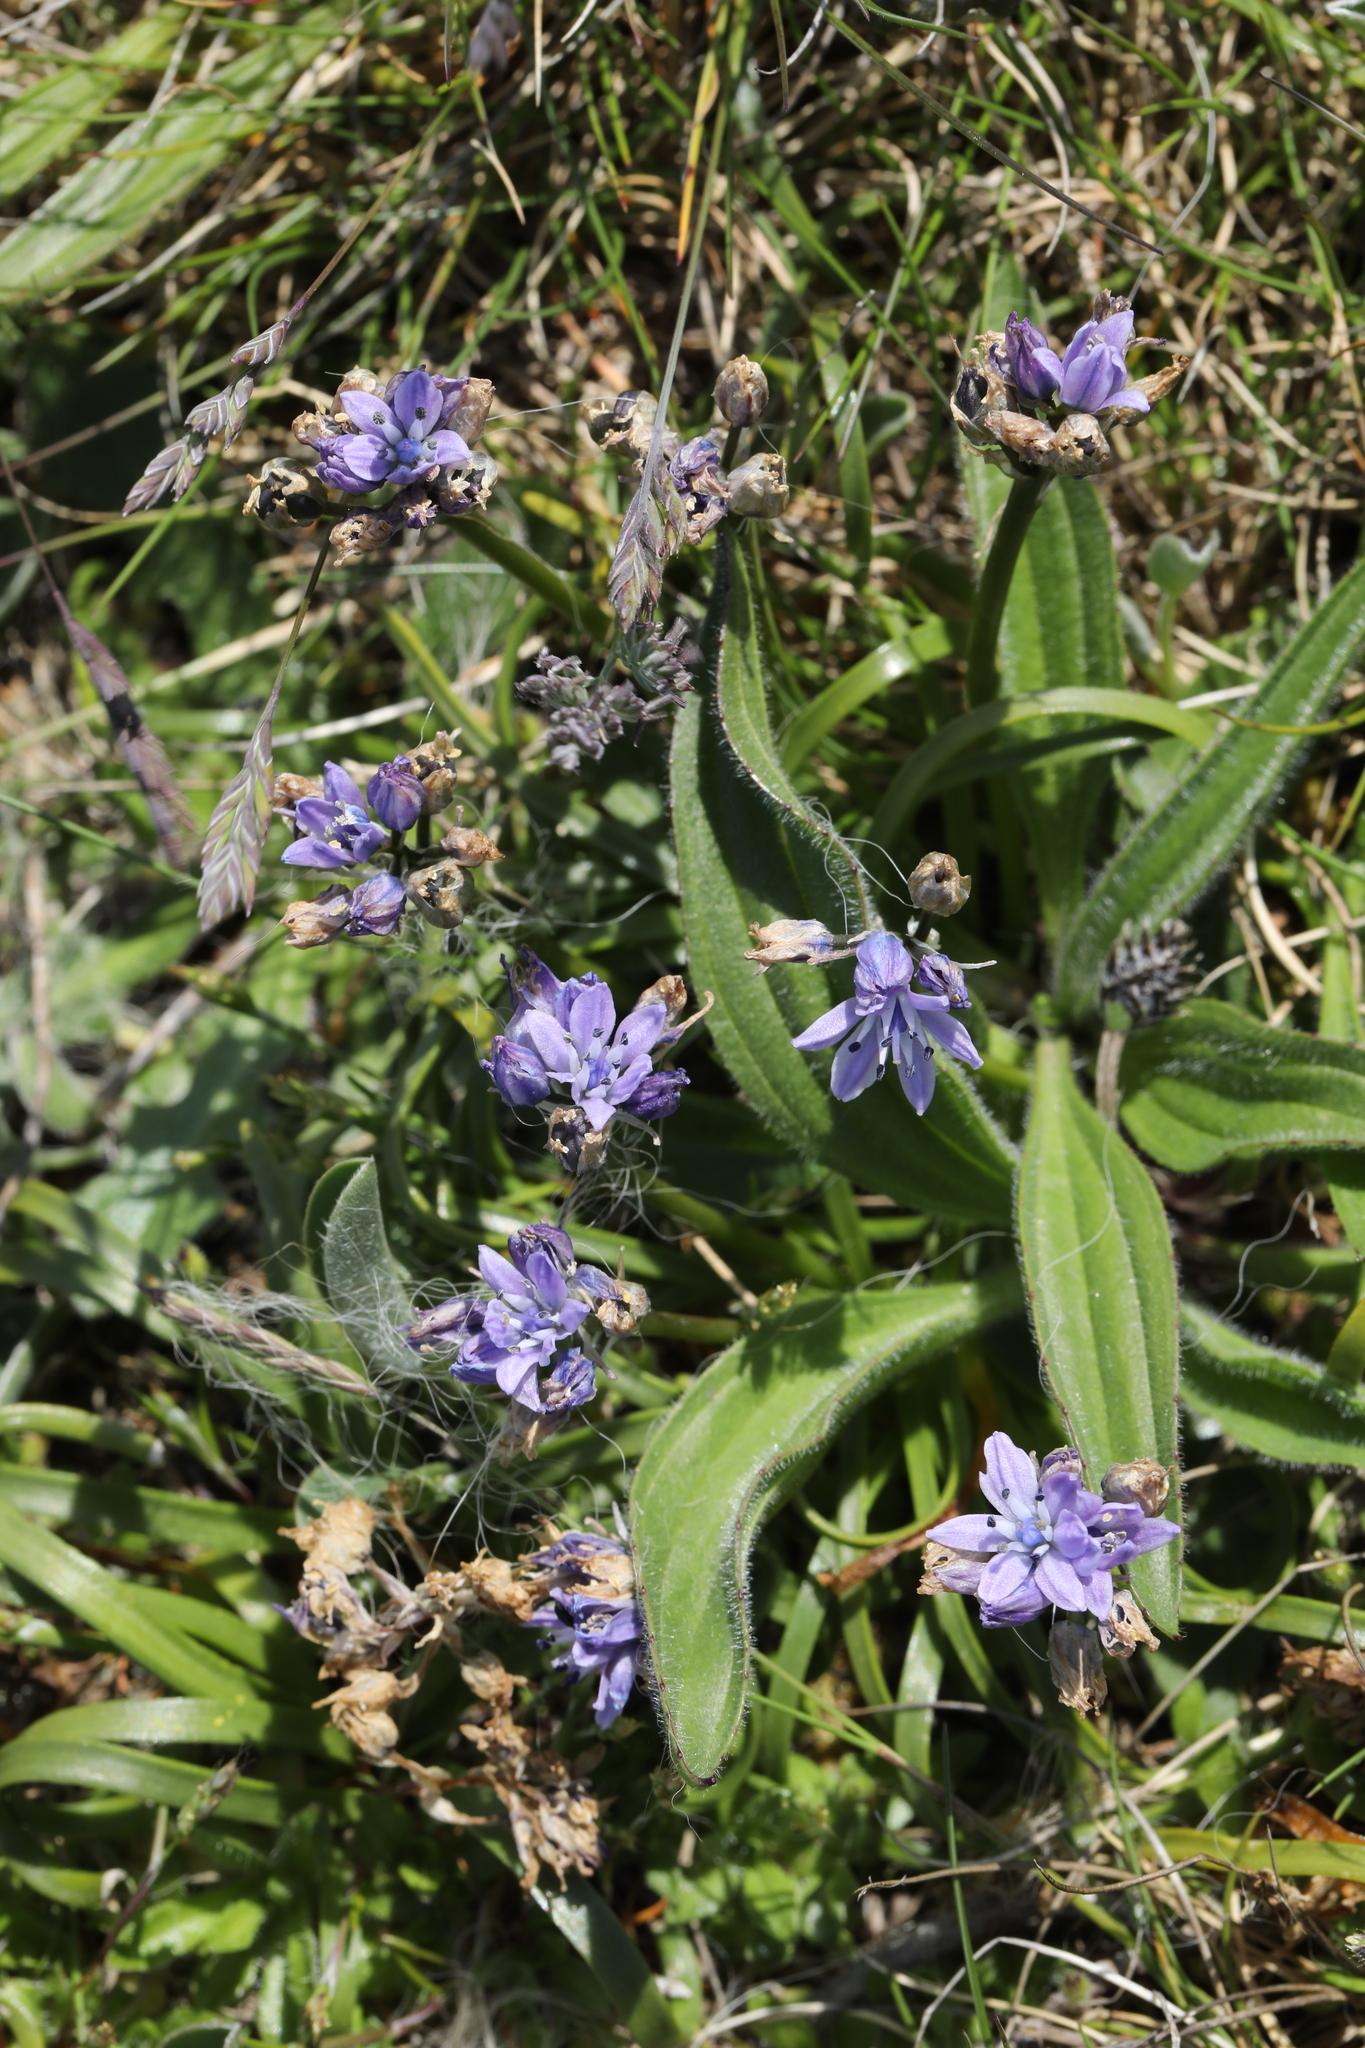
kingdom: Plantae
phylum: Tracheophyta
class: Liliopsida
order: Asparagales
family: Asparagaceae
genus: Scilla
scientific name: Scilla verna
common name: Spring squill
